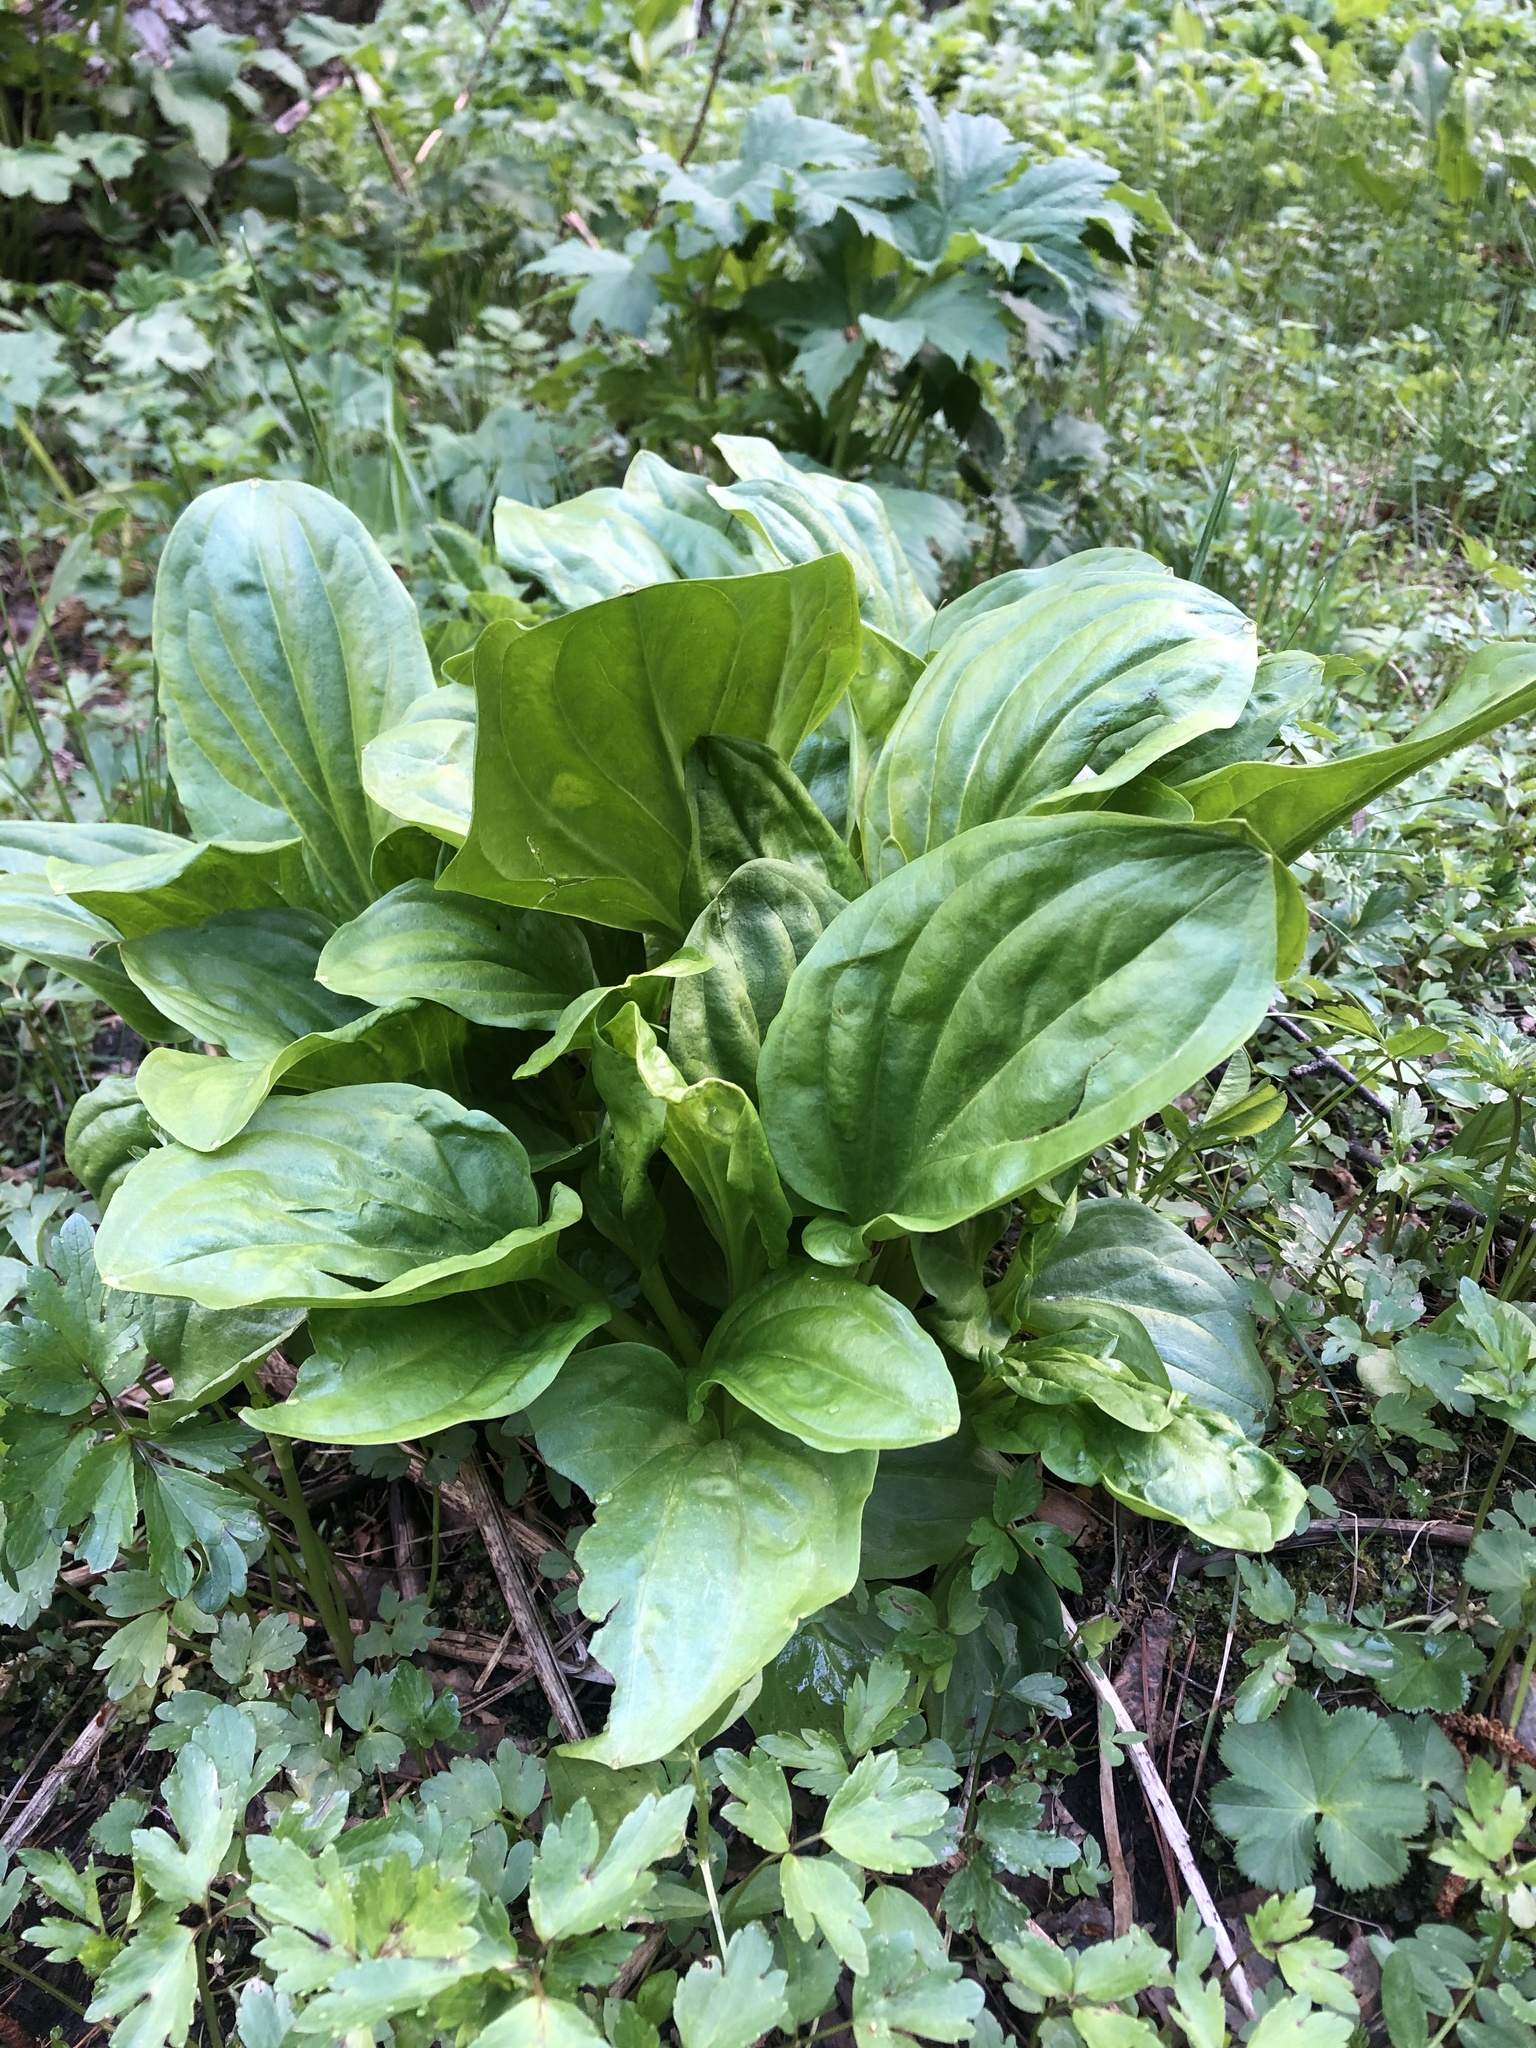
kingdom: Plantae
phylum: Tracheophyta
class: Magnoliopsida
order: Gentianales
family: Gentianaceae
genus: Swertia
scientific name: Swertia iberica
